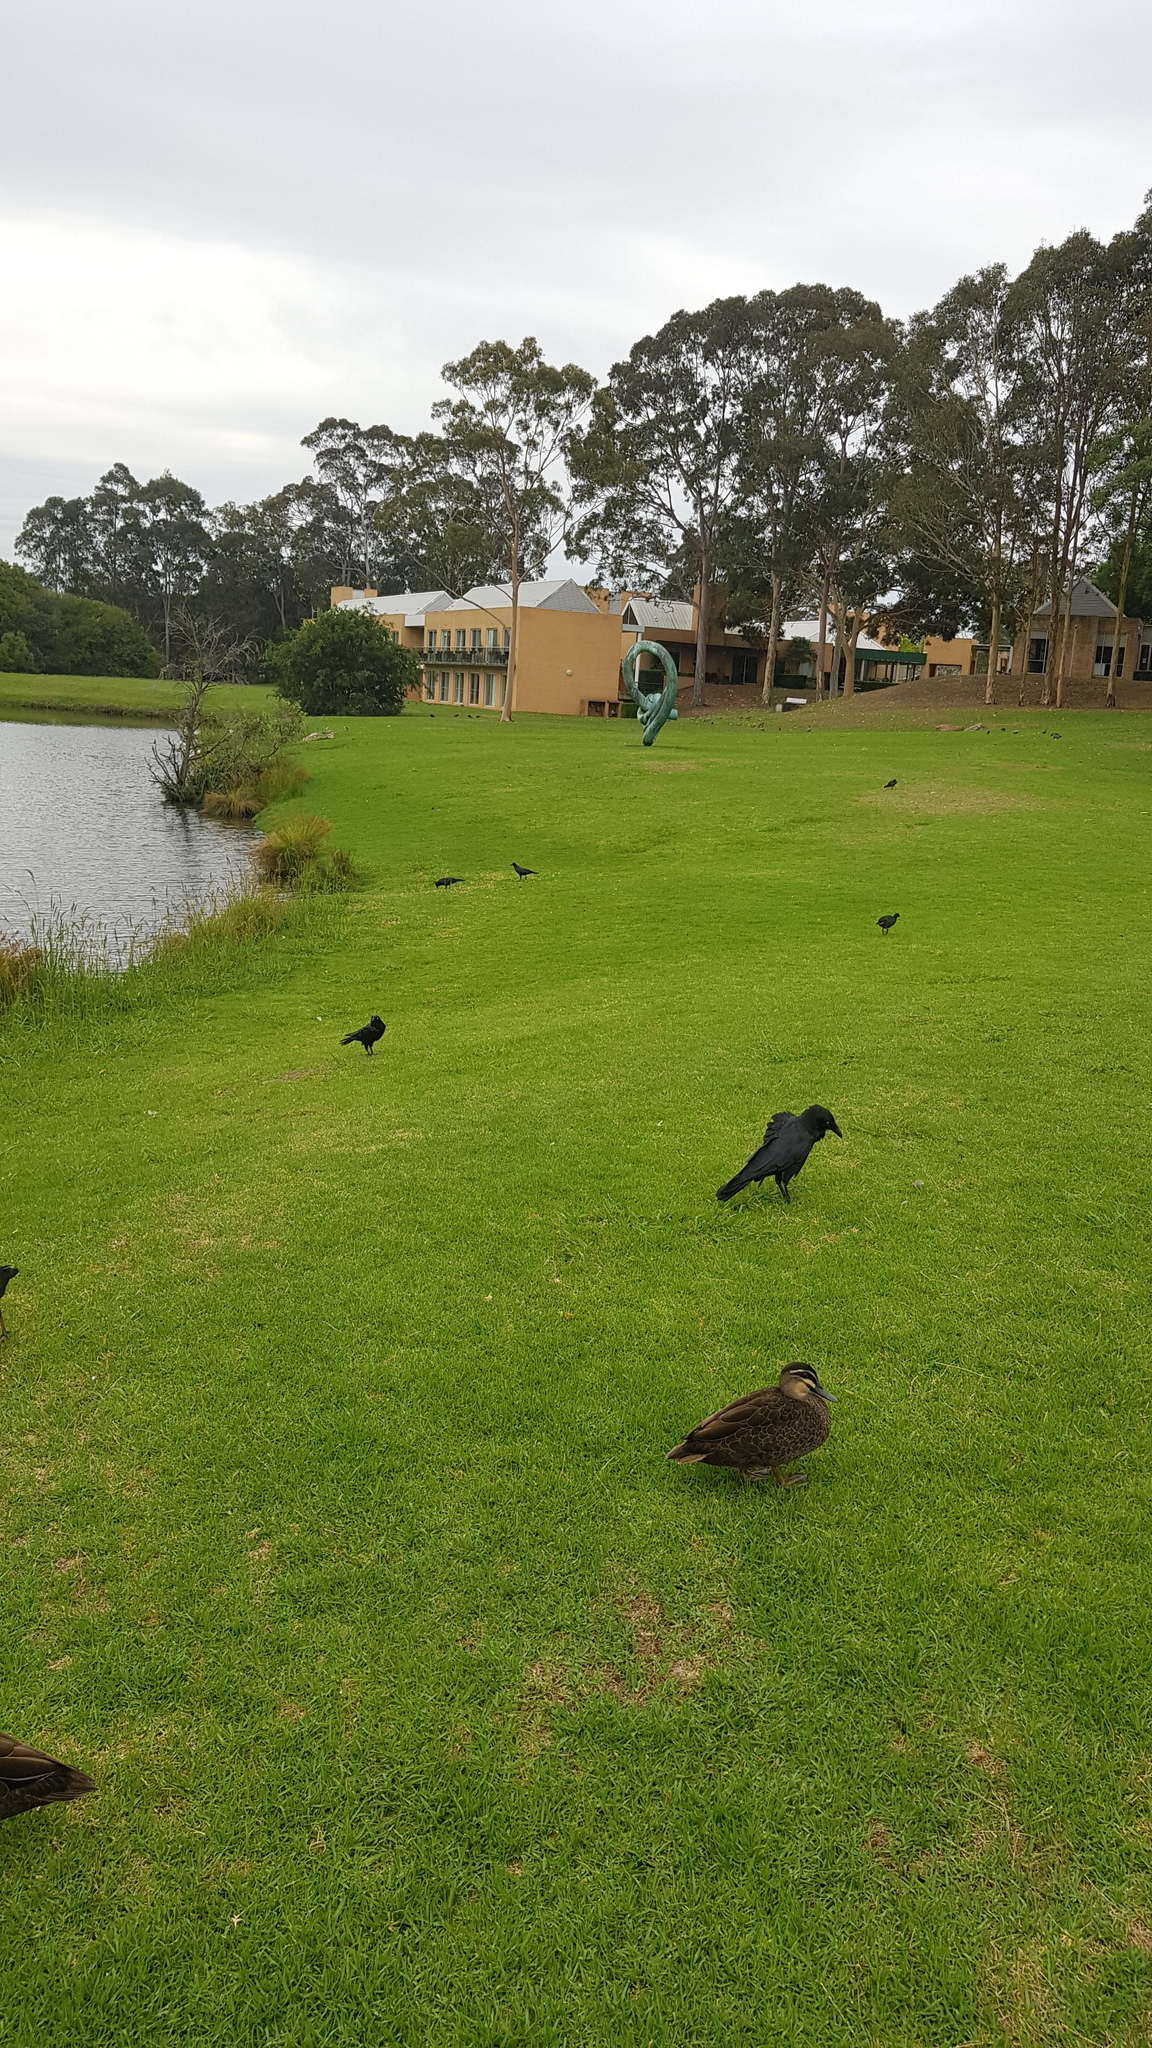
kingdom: Animalia
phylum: Chordata
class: Aves
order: Passeriformes
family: Corvidae
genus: Corvus
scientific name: Corvus coronoides
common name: Australian raven
